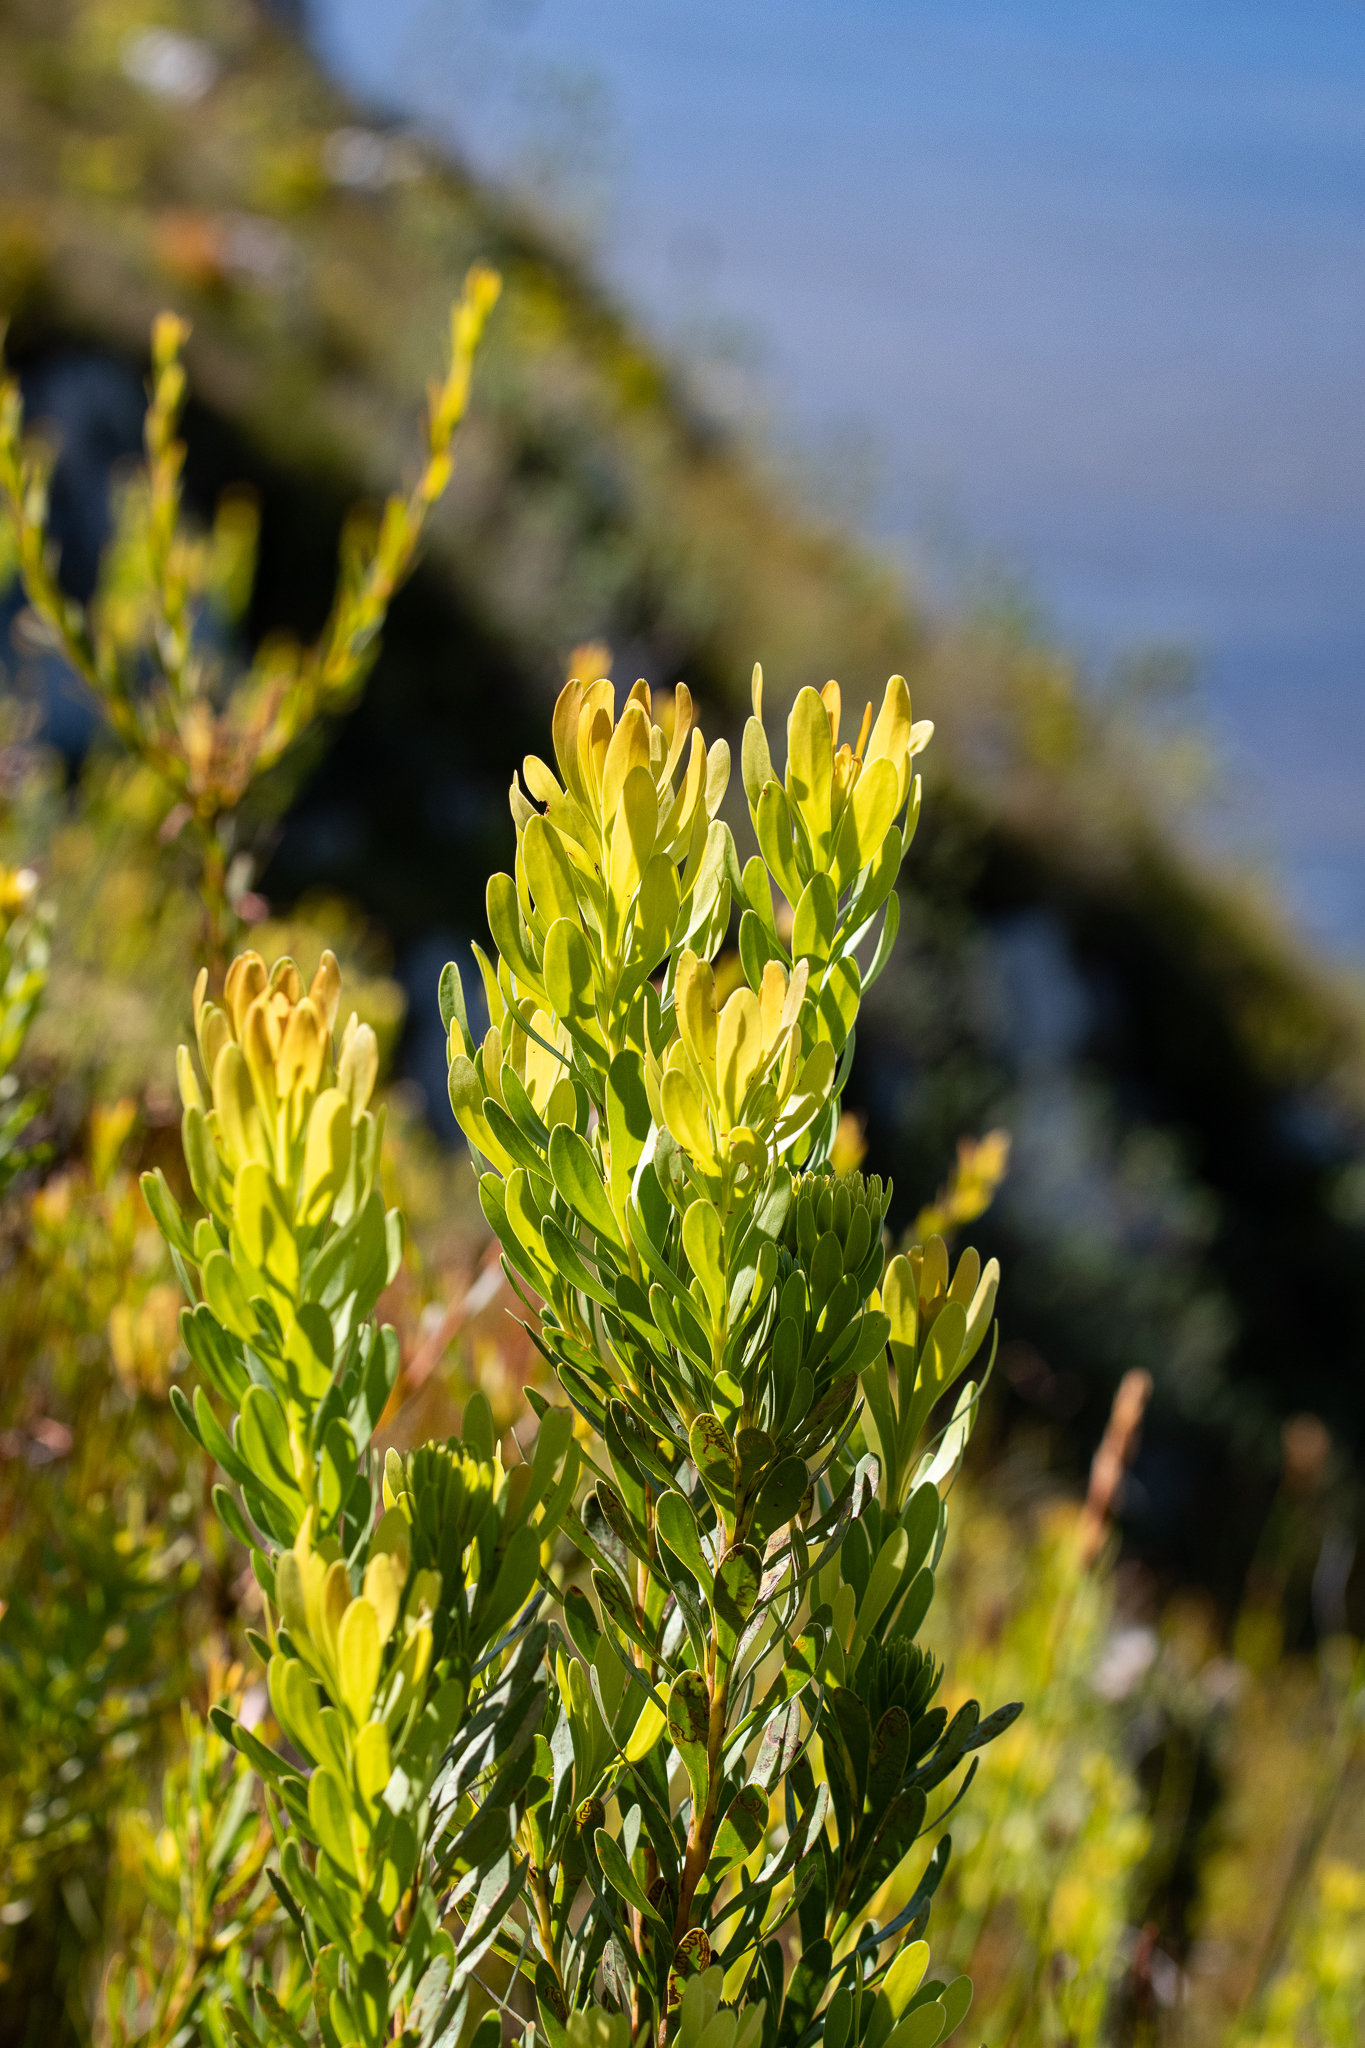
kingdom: Plantae
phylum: Tracheophyta
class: Magnoliopsida
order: Proteales
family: Proteaceae
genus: Aulax
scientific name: Aulax umbellata
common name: Broad-leaf featherbush
